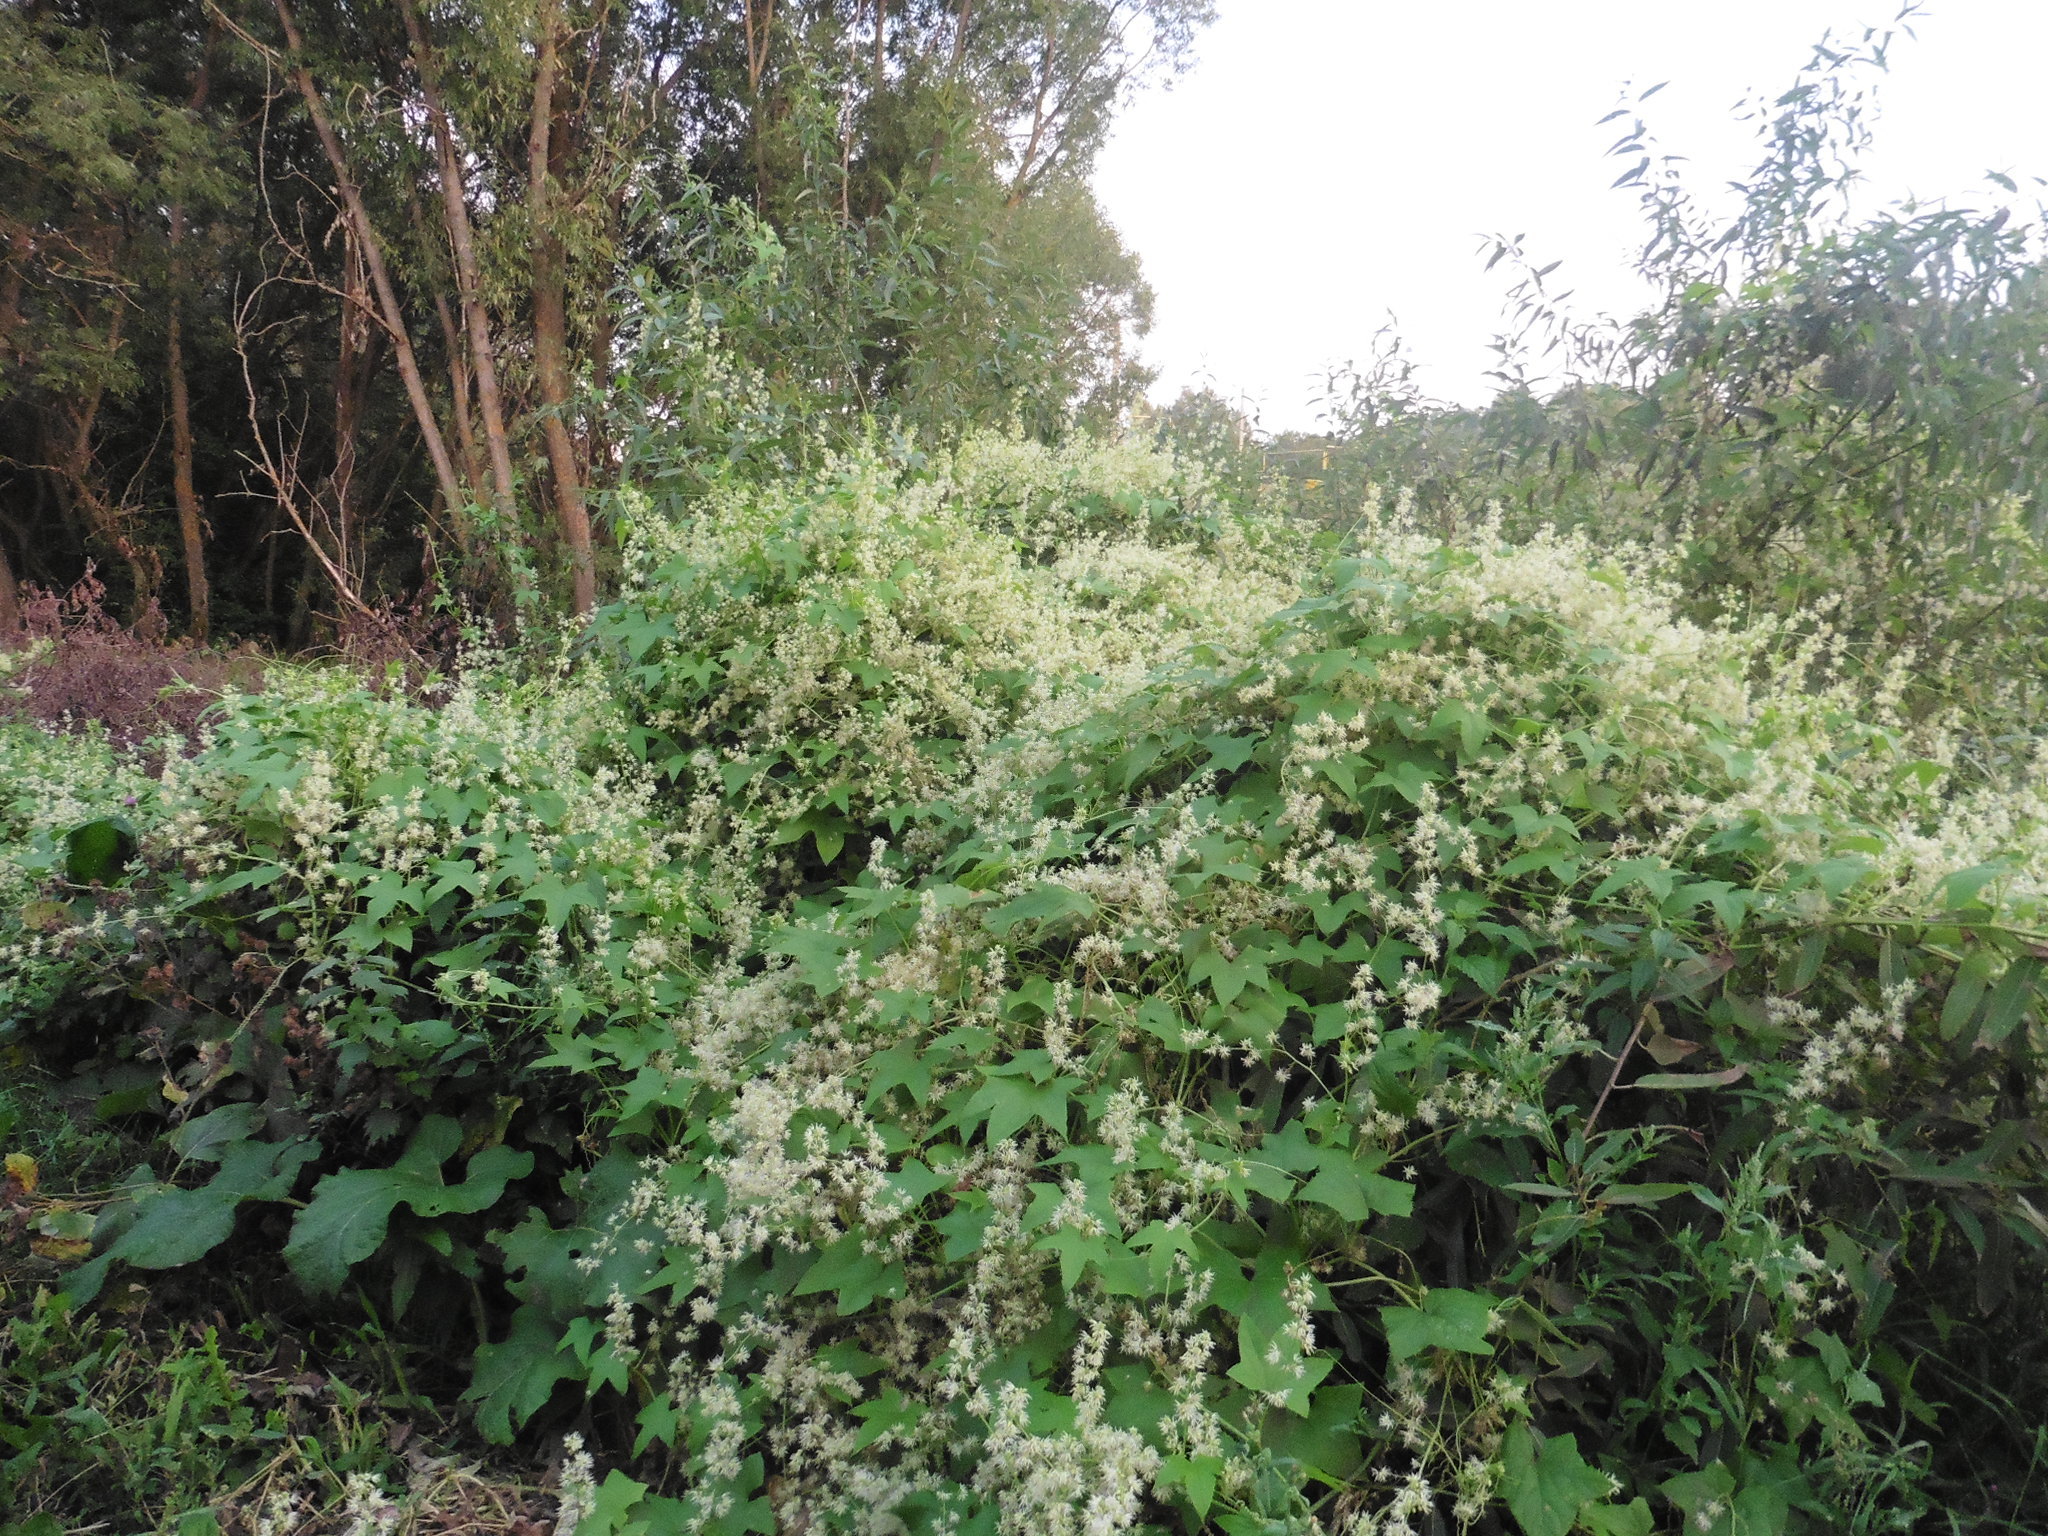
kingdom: Plantae
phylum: Tracheophyta
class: Magnoliopsida
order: Cucurbitales
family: Cucurbitaceae
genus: Echinocystis
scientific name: Echinocystis lobata
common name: Wild cucumber
